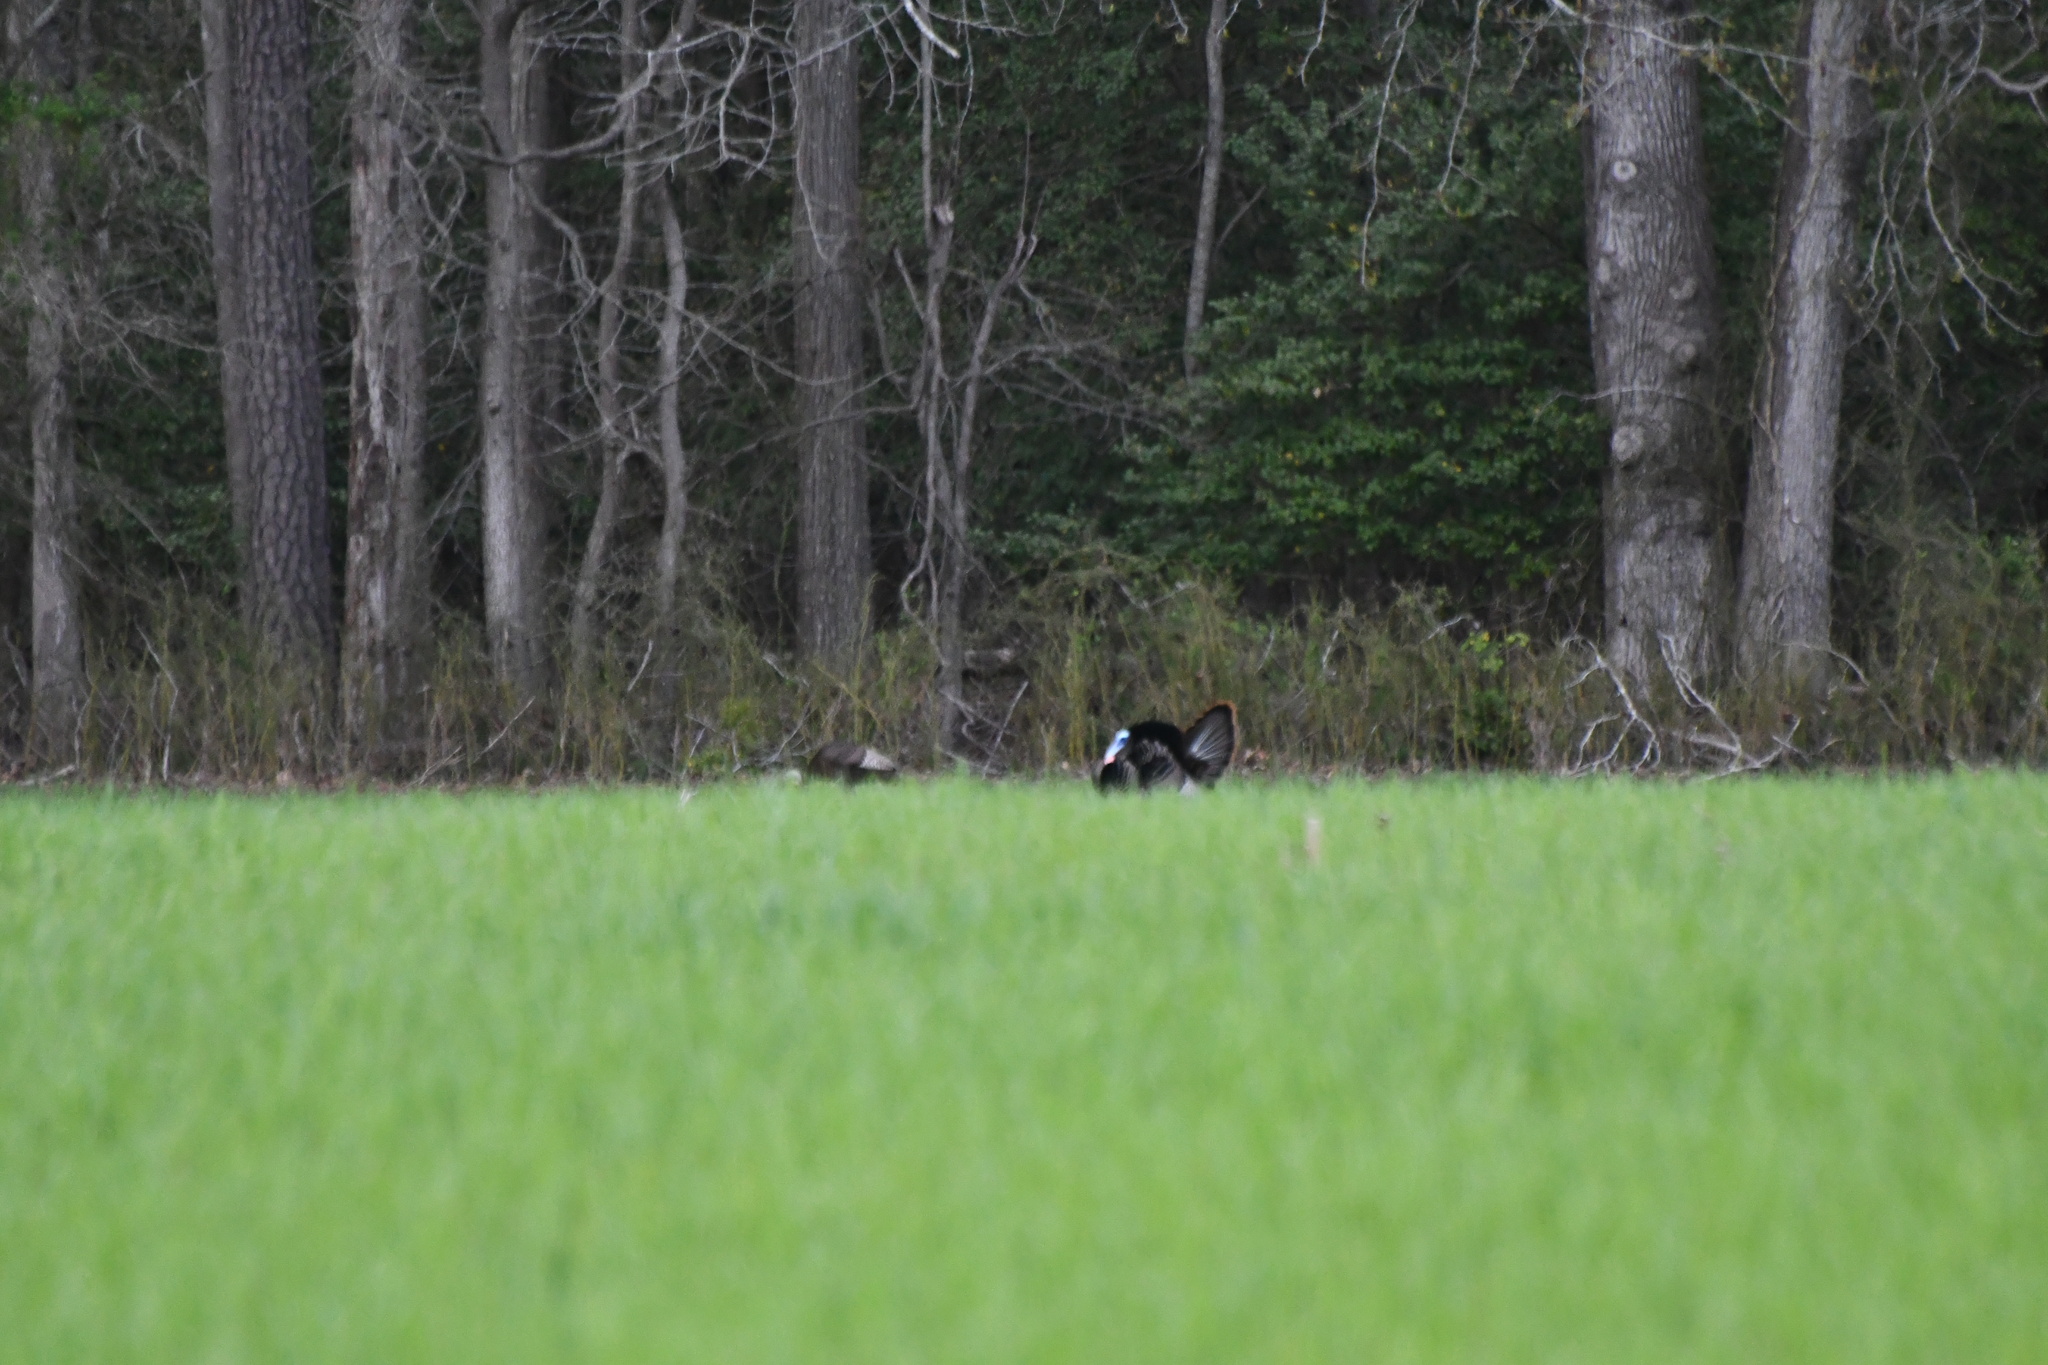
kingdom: Animalia
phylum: Chordata
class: Aves
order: Galliformes
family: Phasianidae
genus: Meleagris
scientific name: Meleagris gallopavo
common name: Wild turkey
